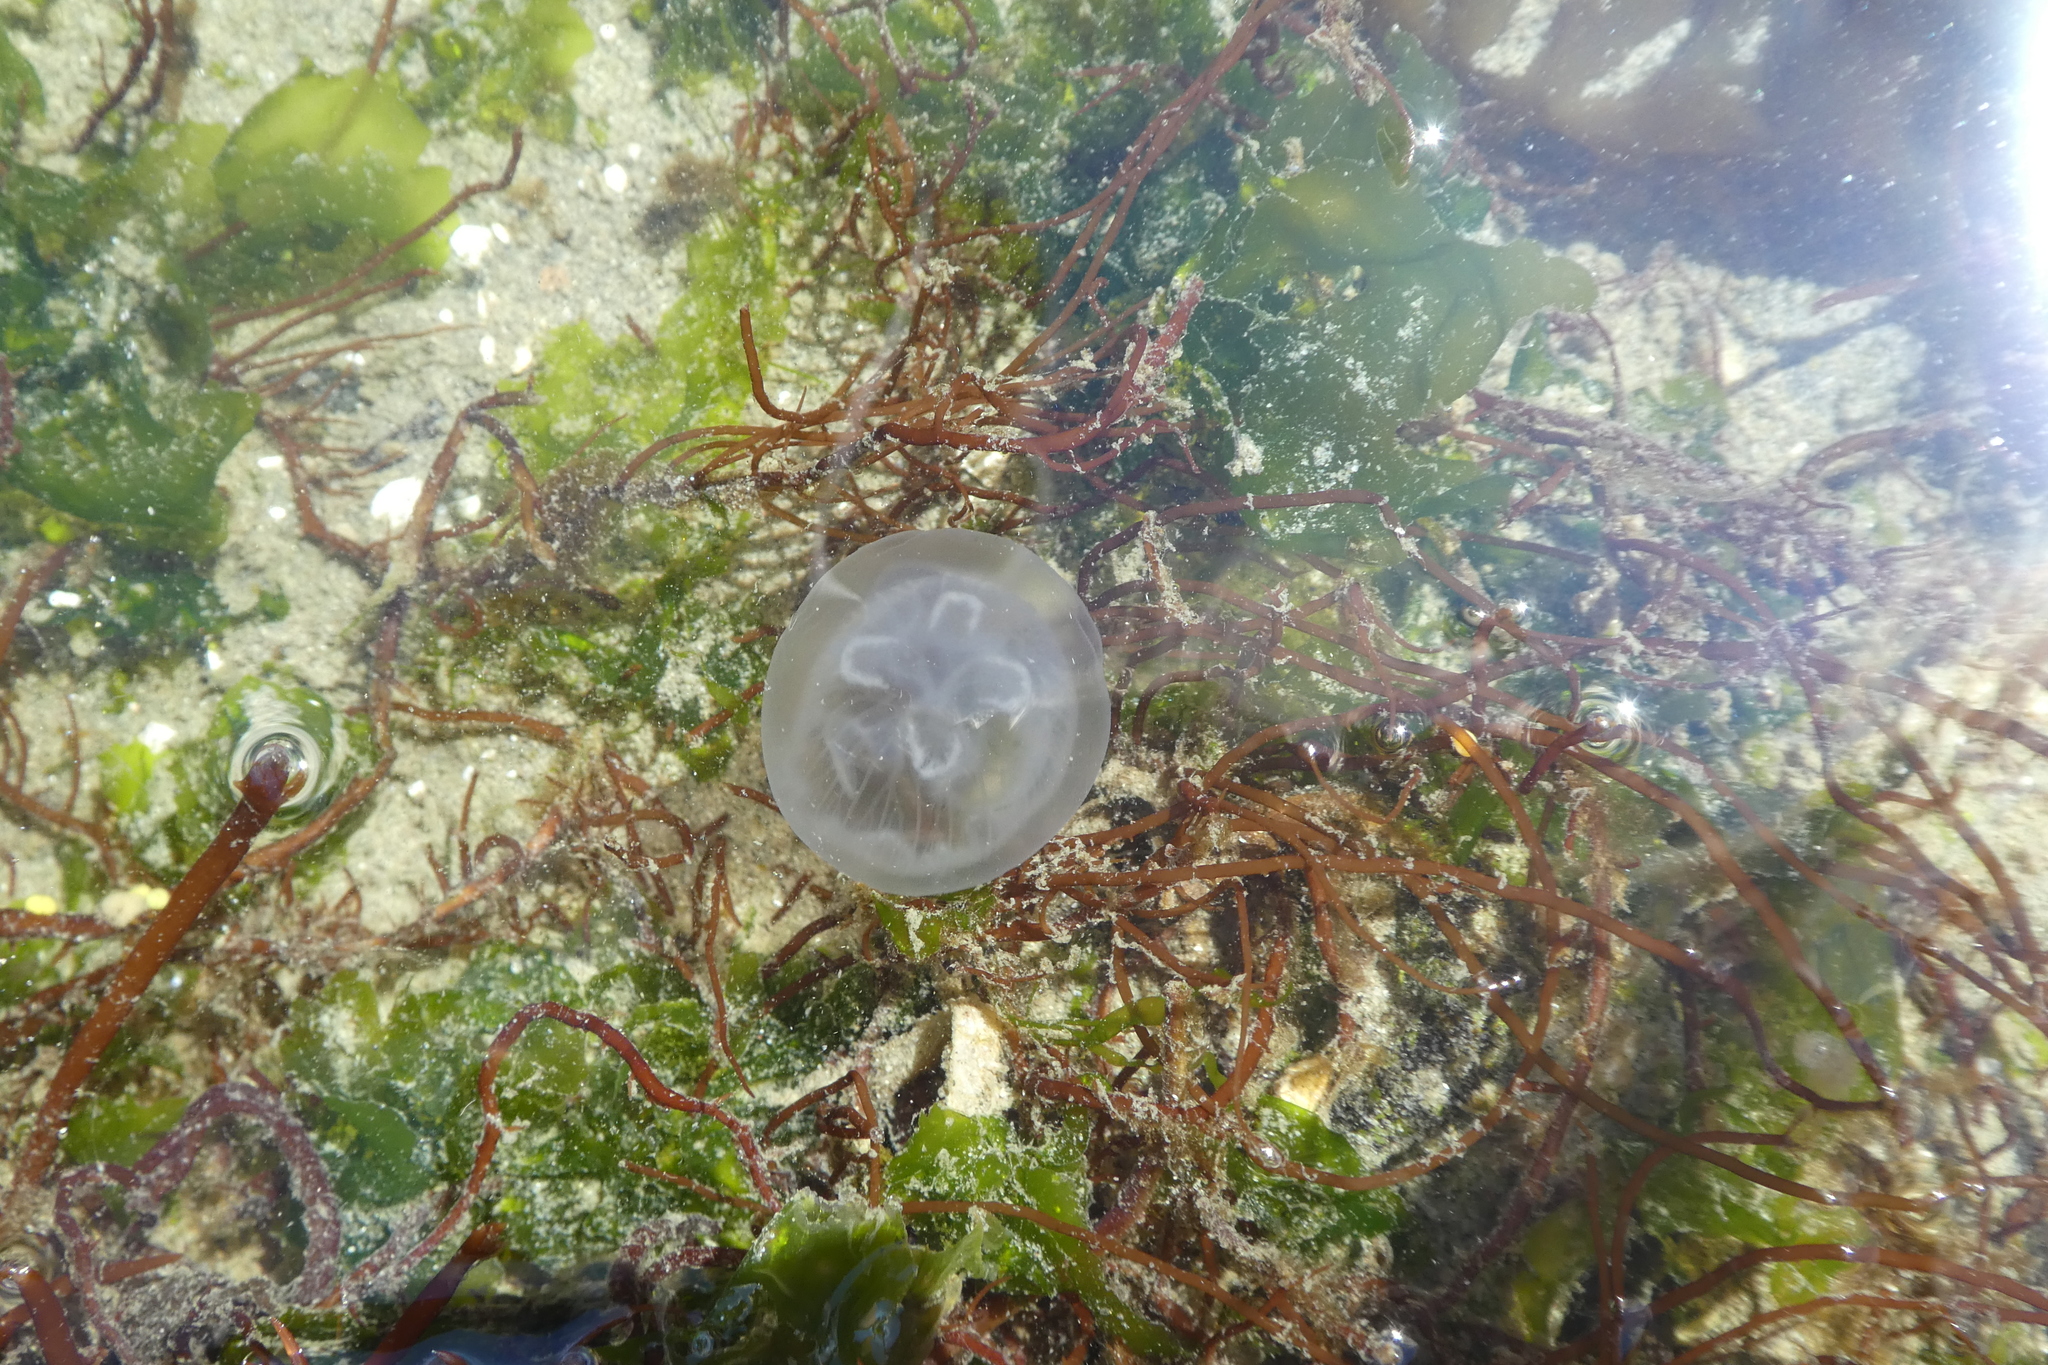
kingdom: Animalia
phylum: Cnidaria
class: Hydrozoa
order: Leptothecata
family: Aequoreidae
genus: Aequorea
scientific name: Aequorea victoria
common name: Water jellyfish
